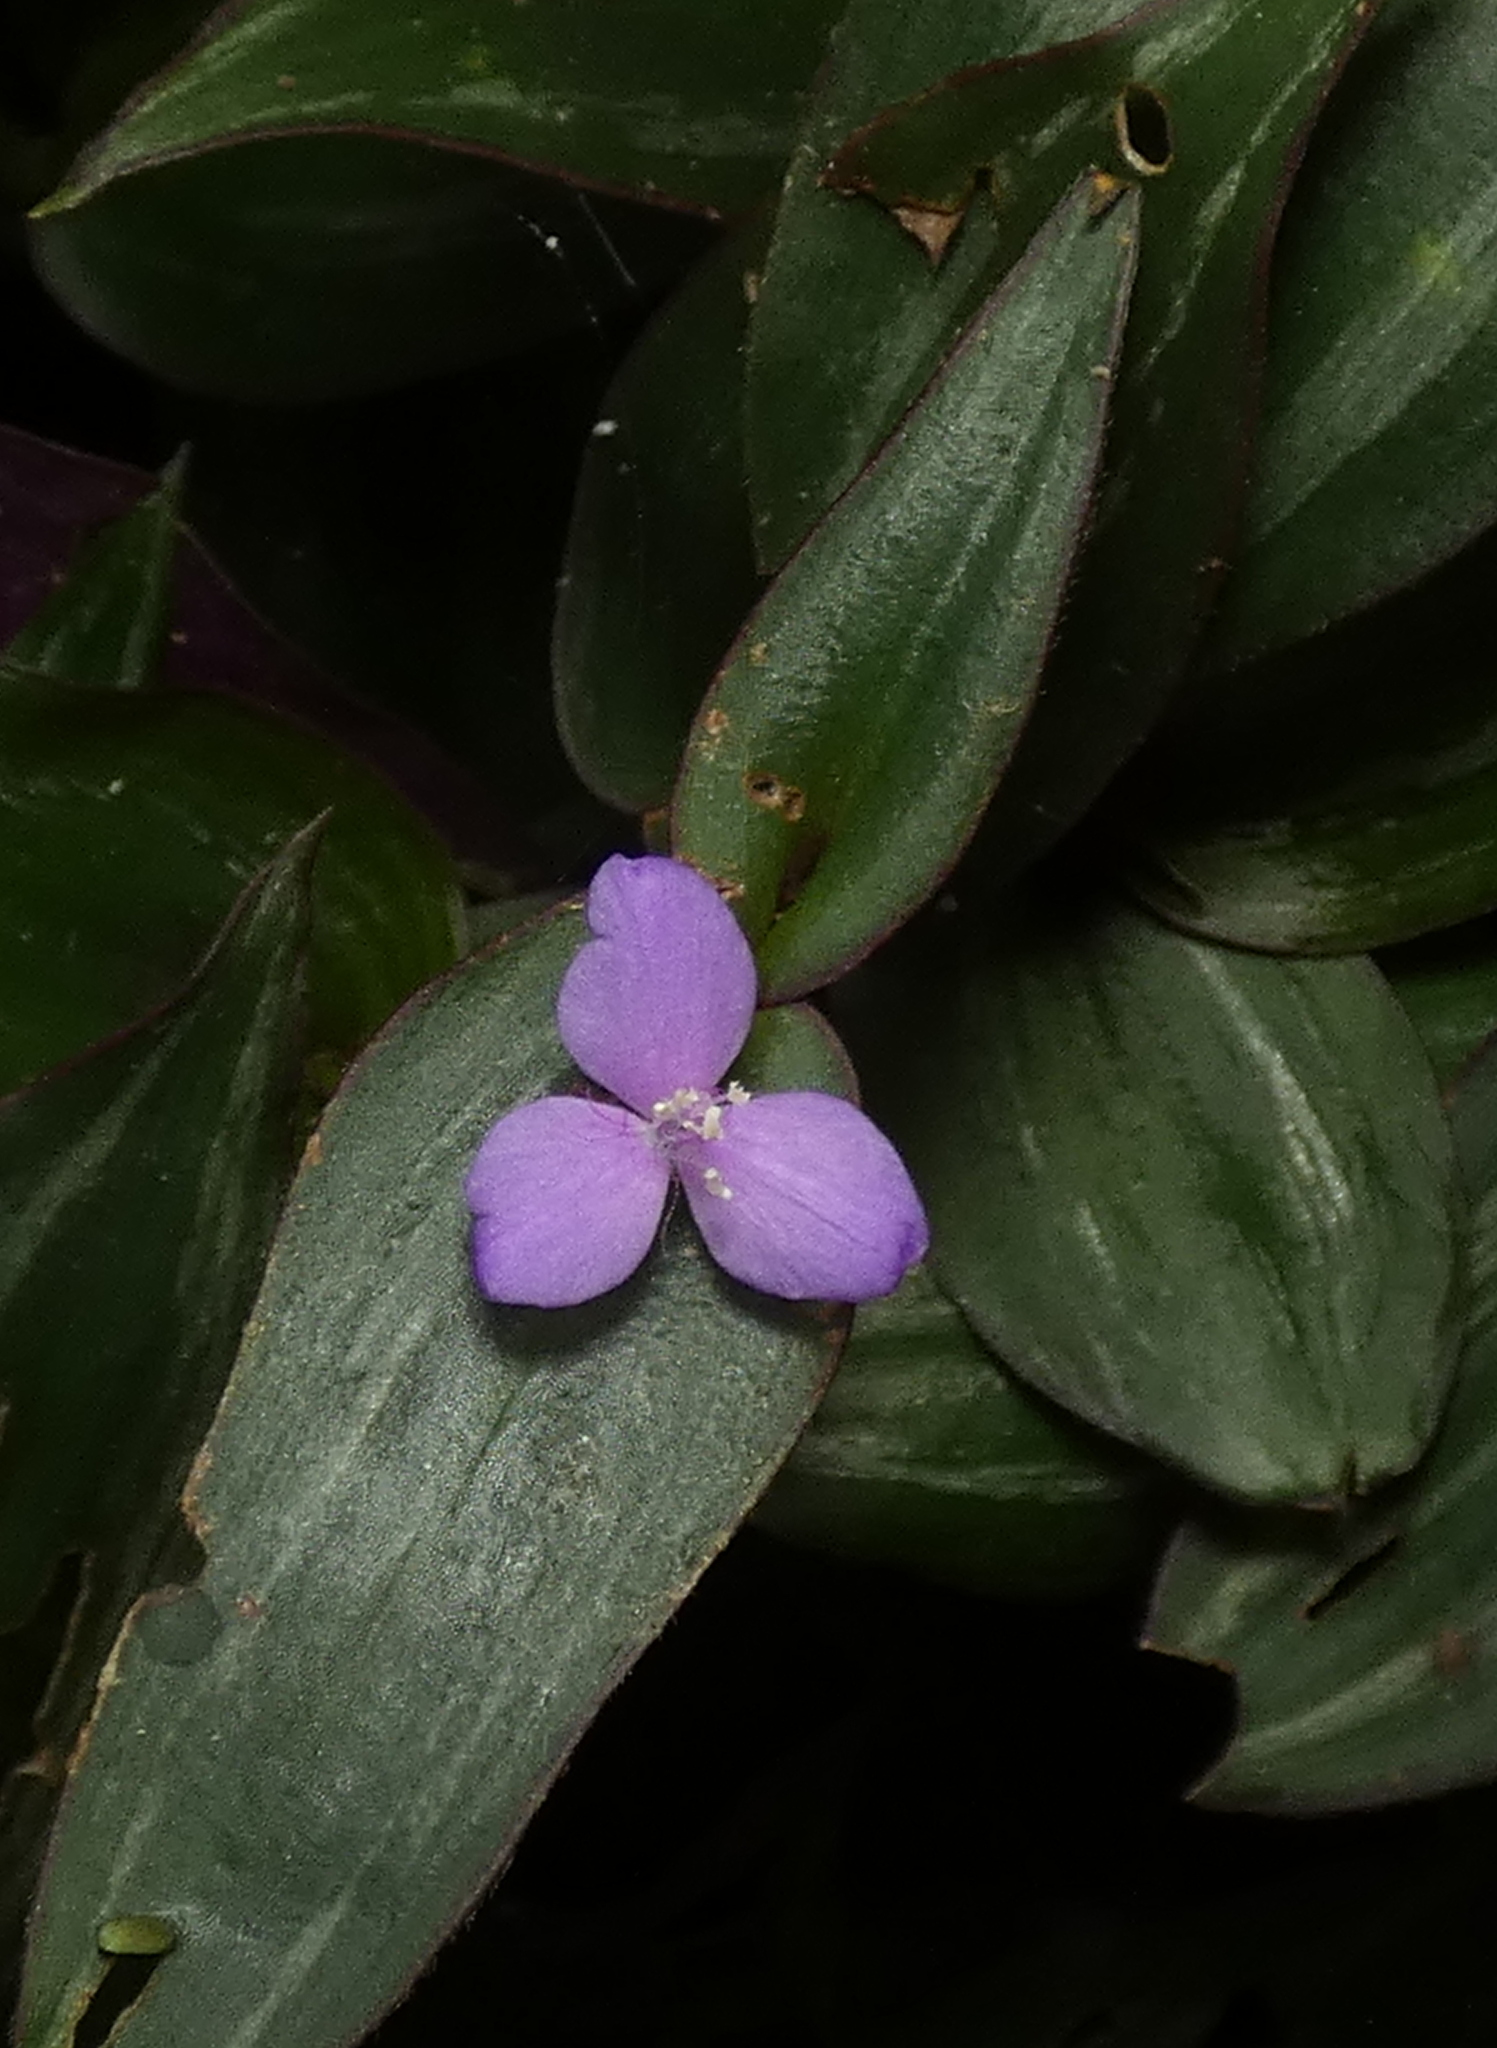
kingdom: Plantae
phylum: Tracheophyta
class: Liliopsida
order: Commelinales
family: Commelinaceae
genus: Tradescantia
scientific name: Tradescantia zebrina
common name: Inchplant
